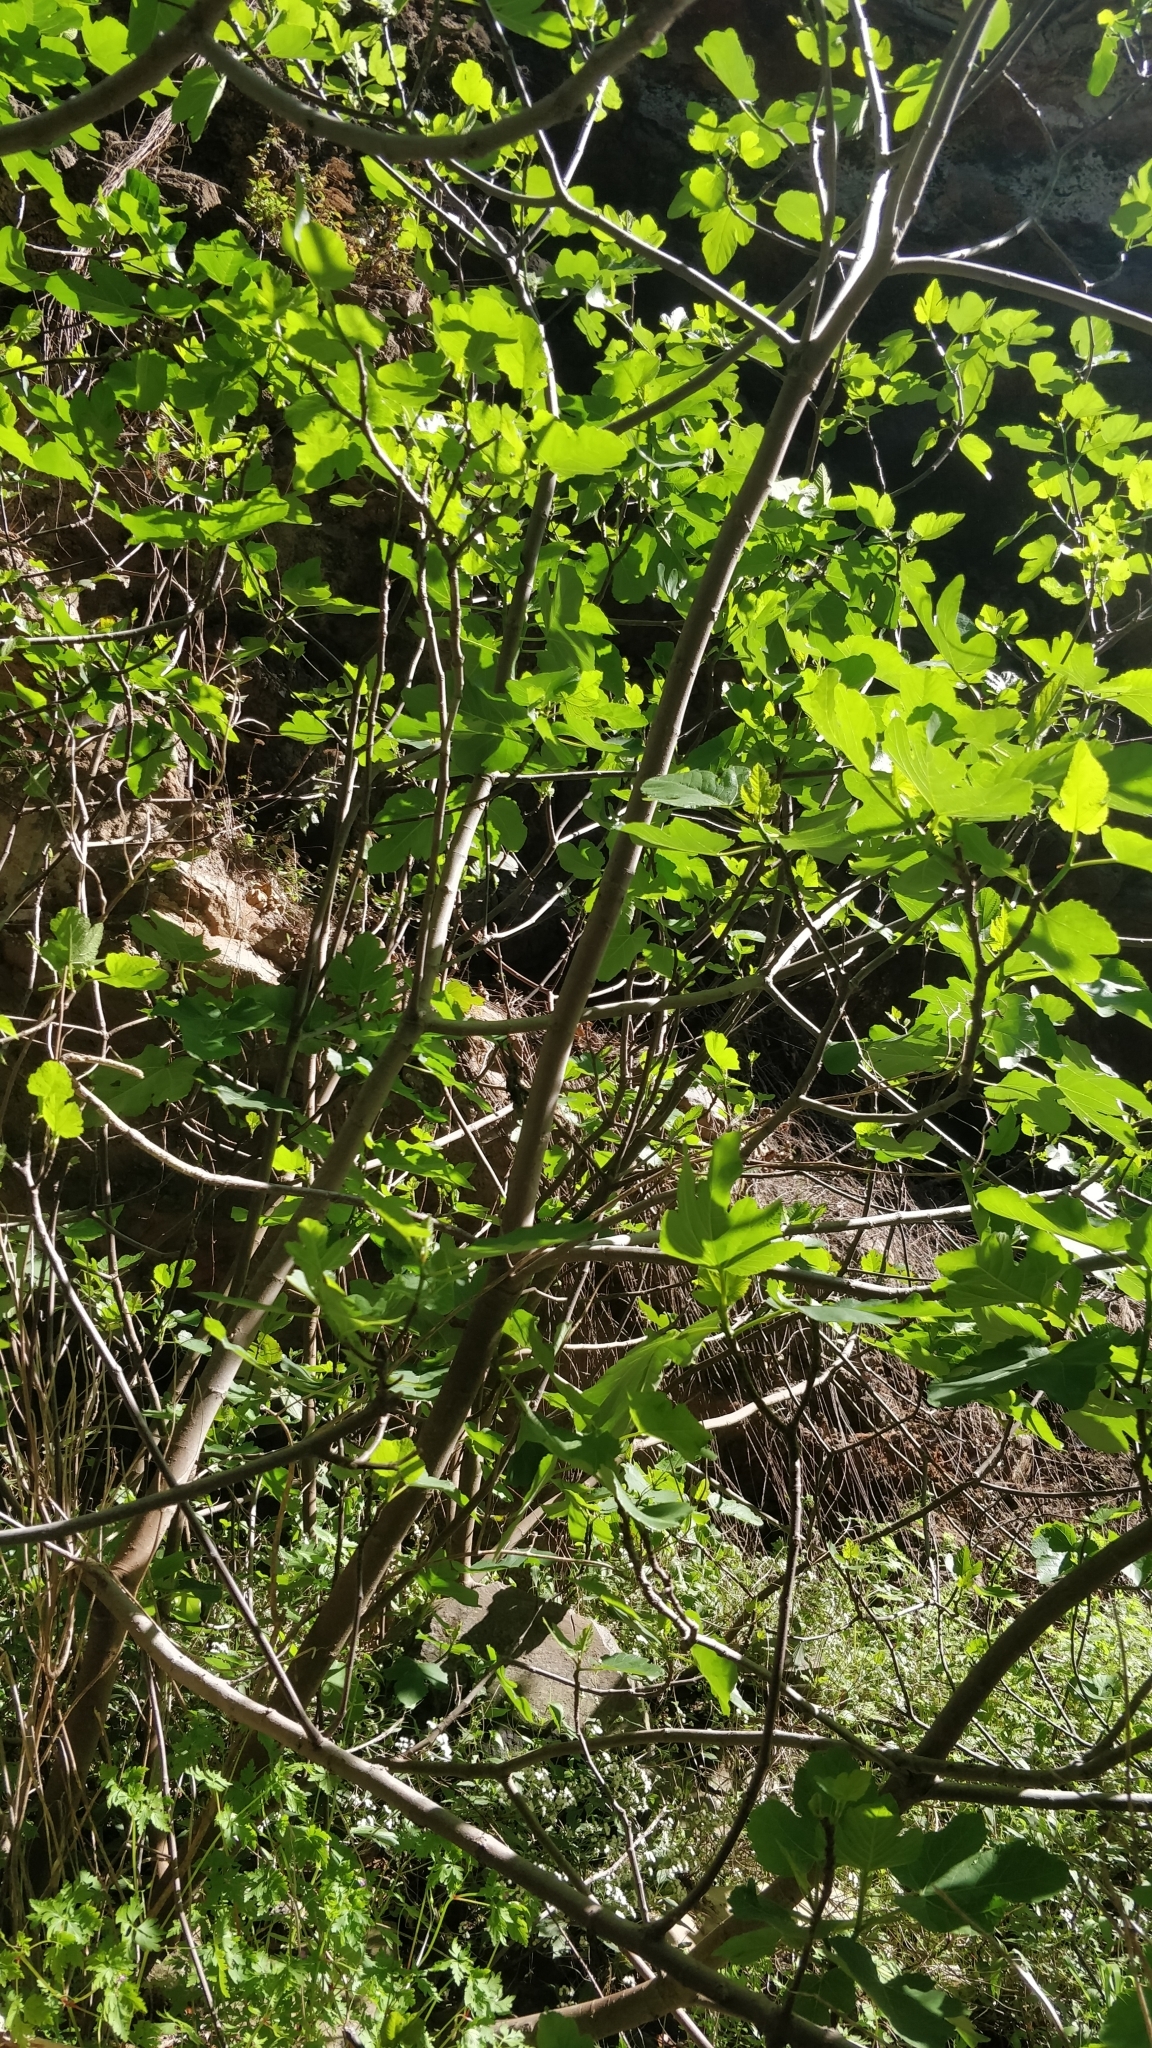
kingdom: Plantae
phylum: Tracheophyta
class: Magnoliopsida
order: Rosales
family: Moraceae
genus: Ficus
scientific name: Ficus carica
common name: Fig
